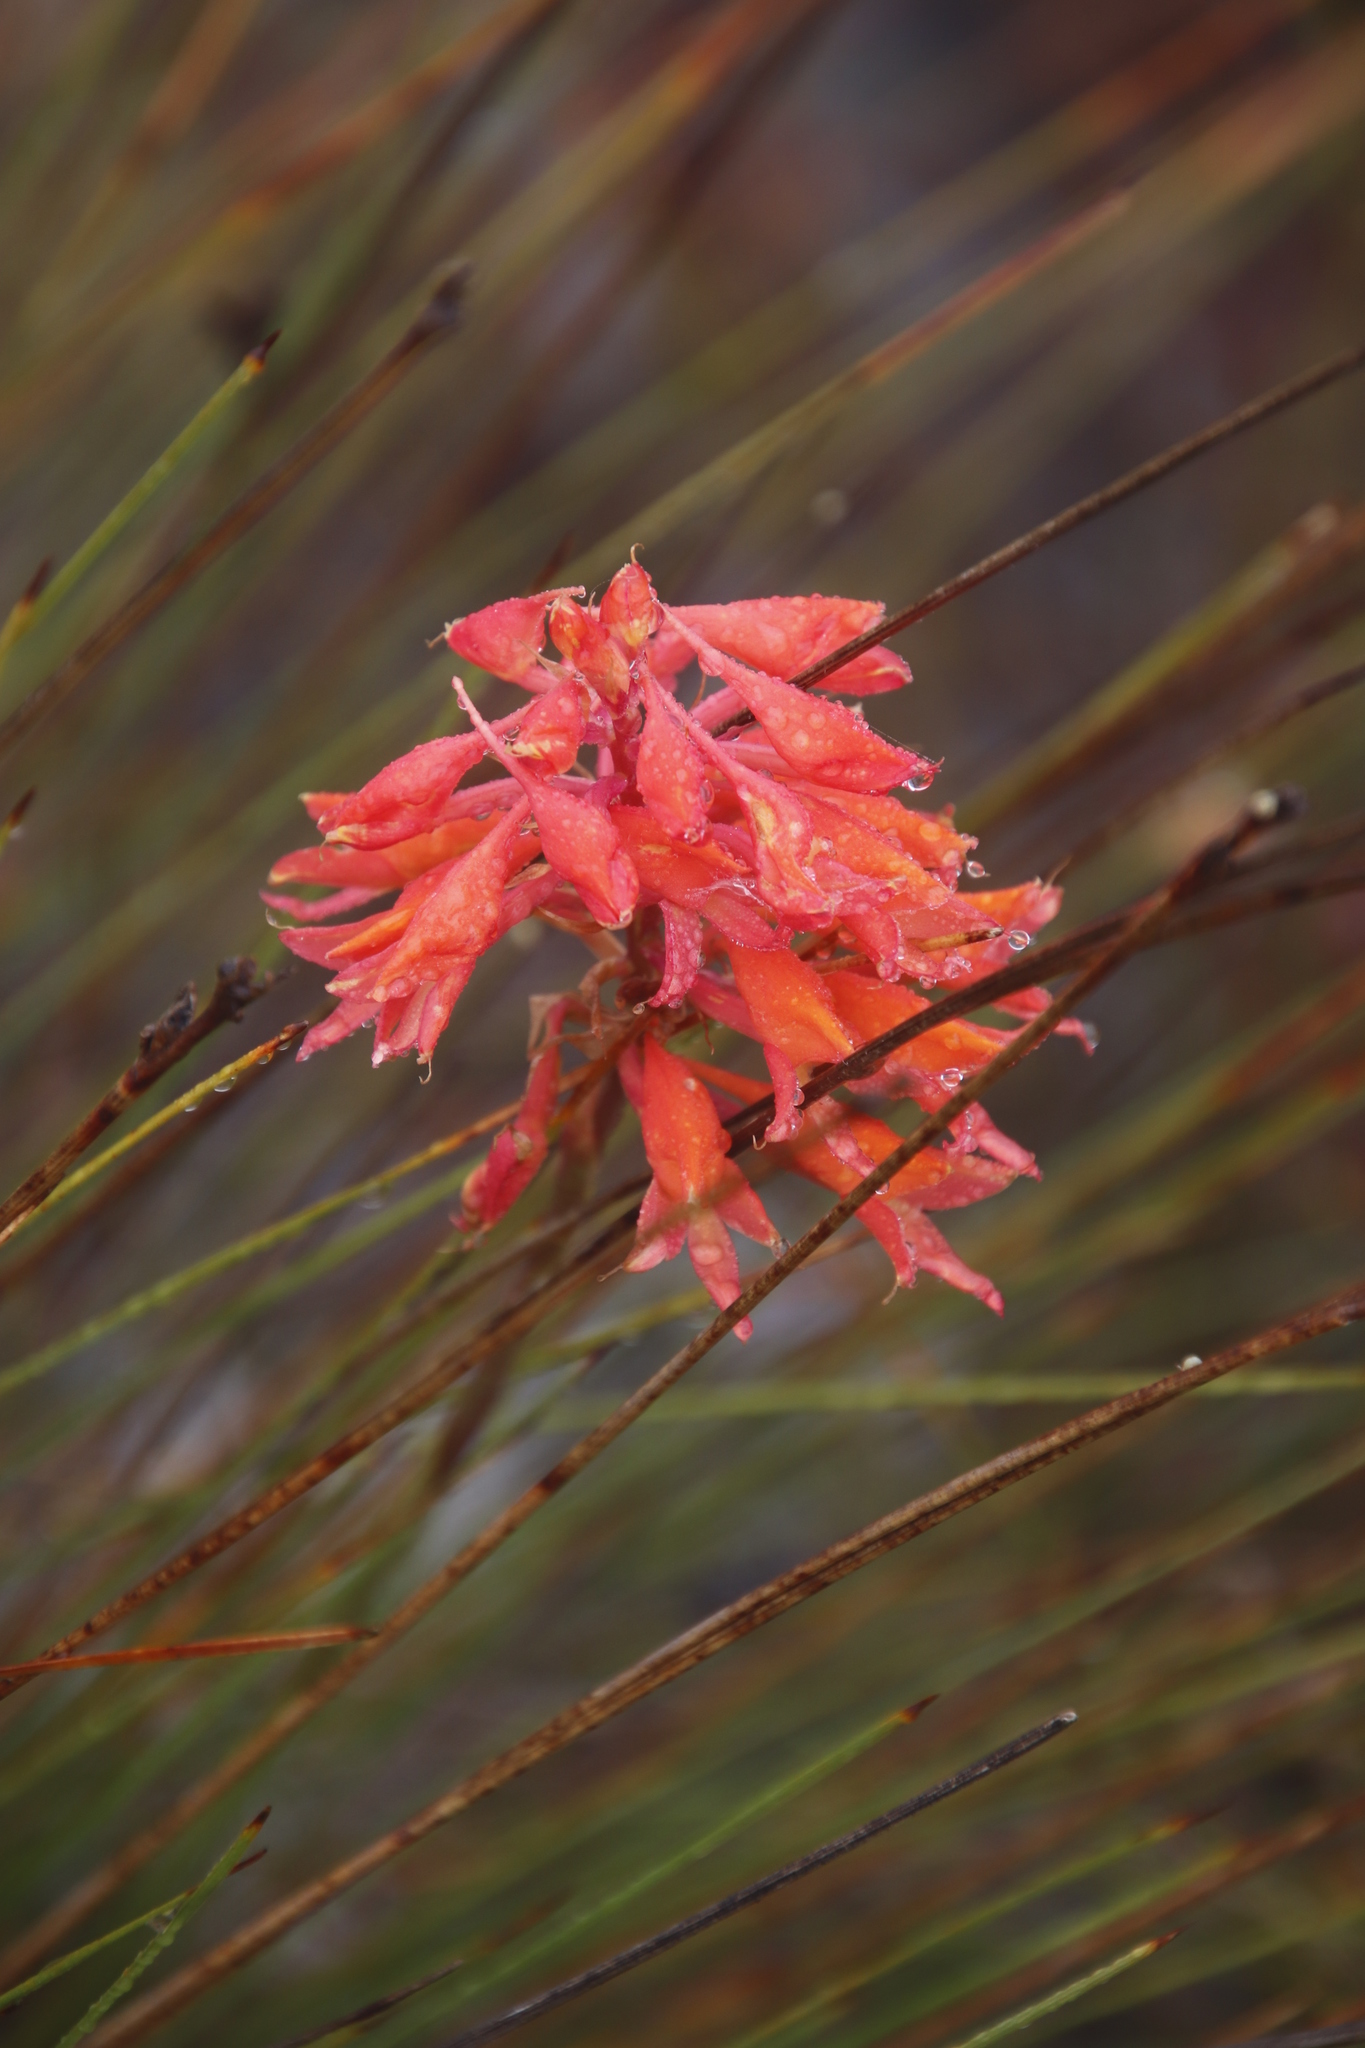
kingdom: Plantae
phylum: Tracheophyta
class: Liliopsida
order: Asparagales
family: Orchidaceae
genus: Disa
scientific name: Disa ferruginea
